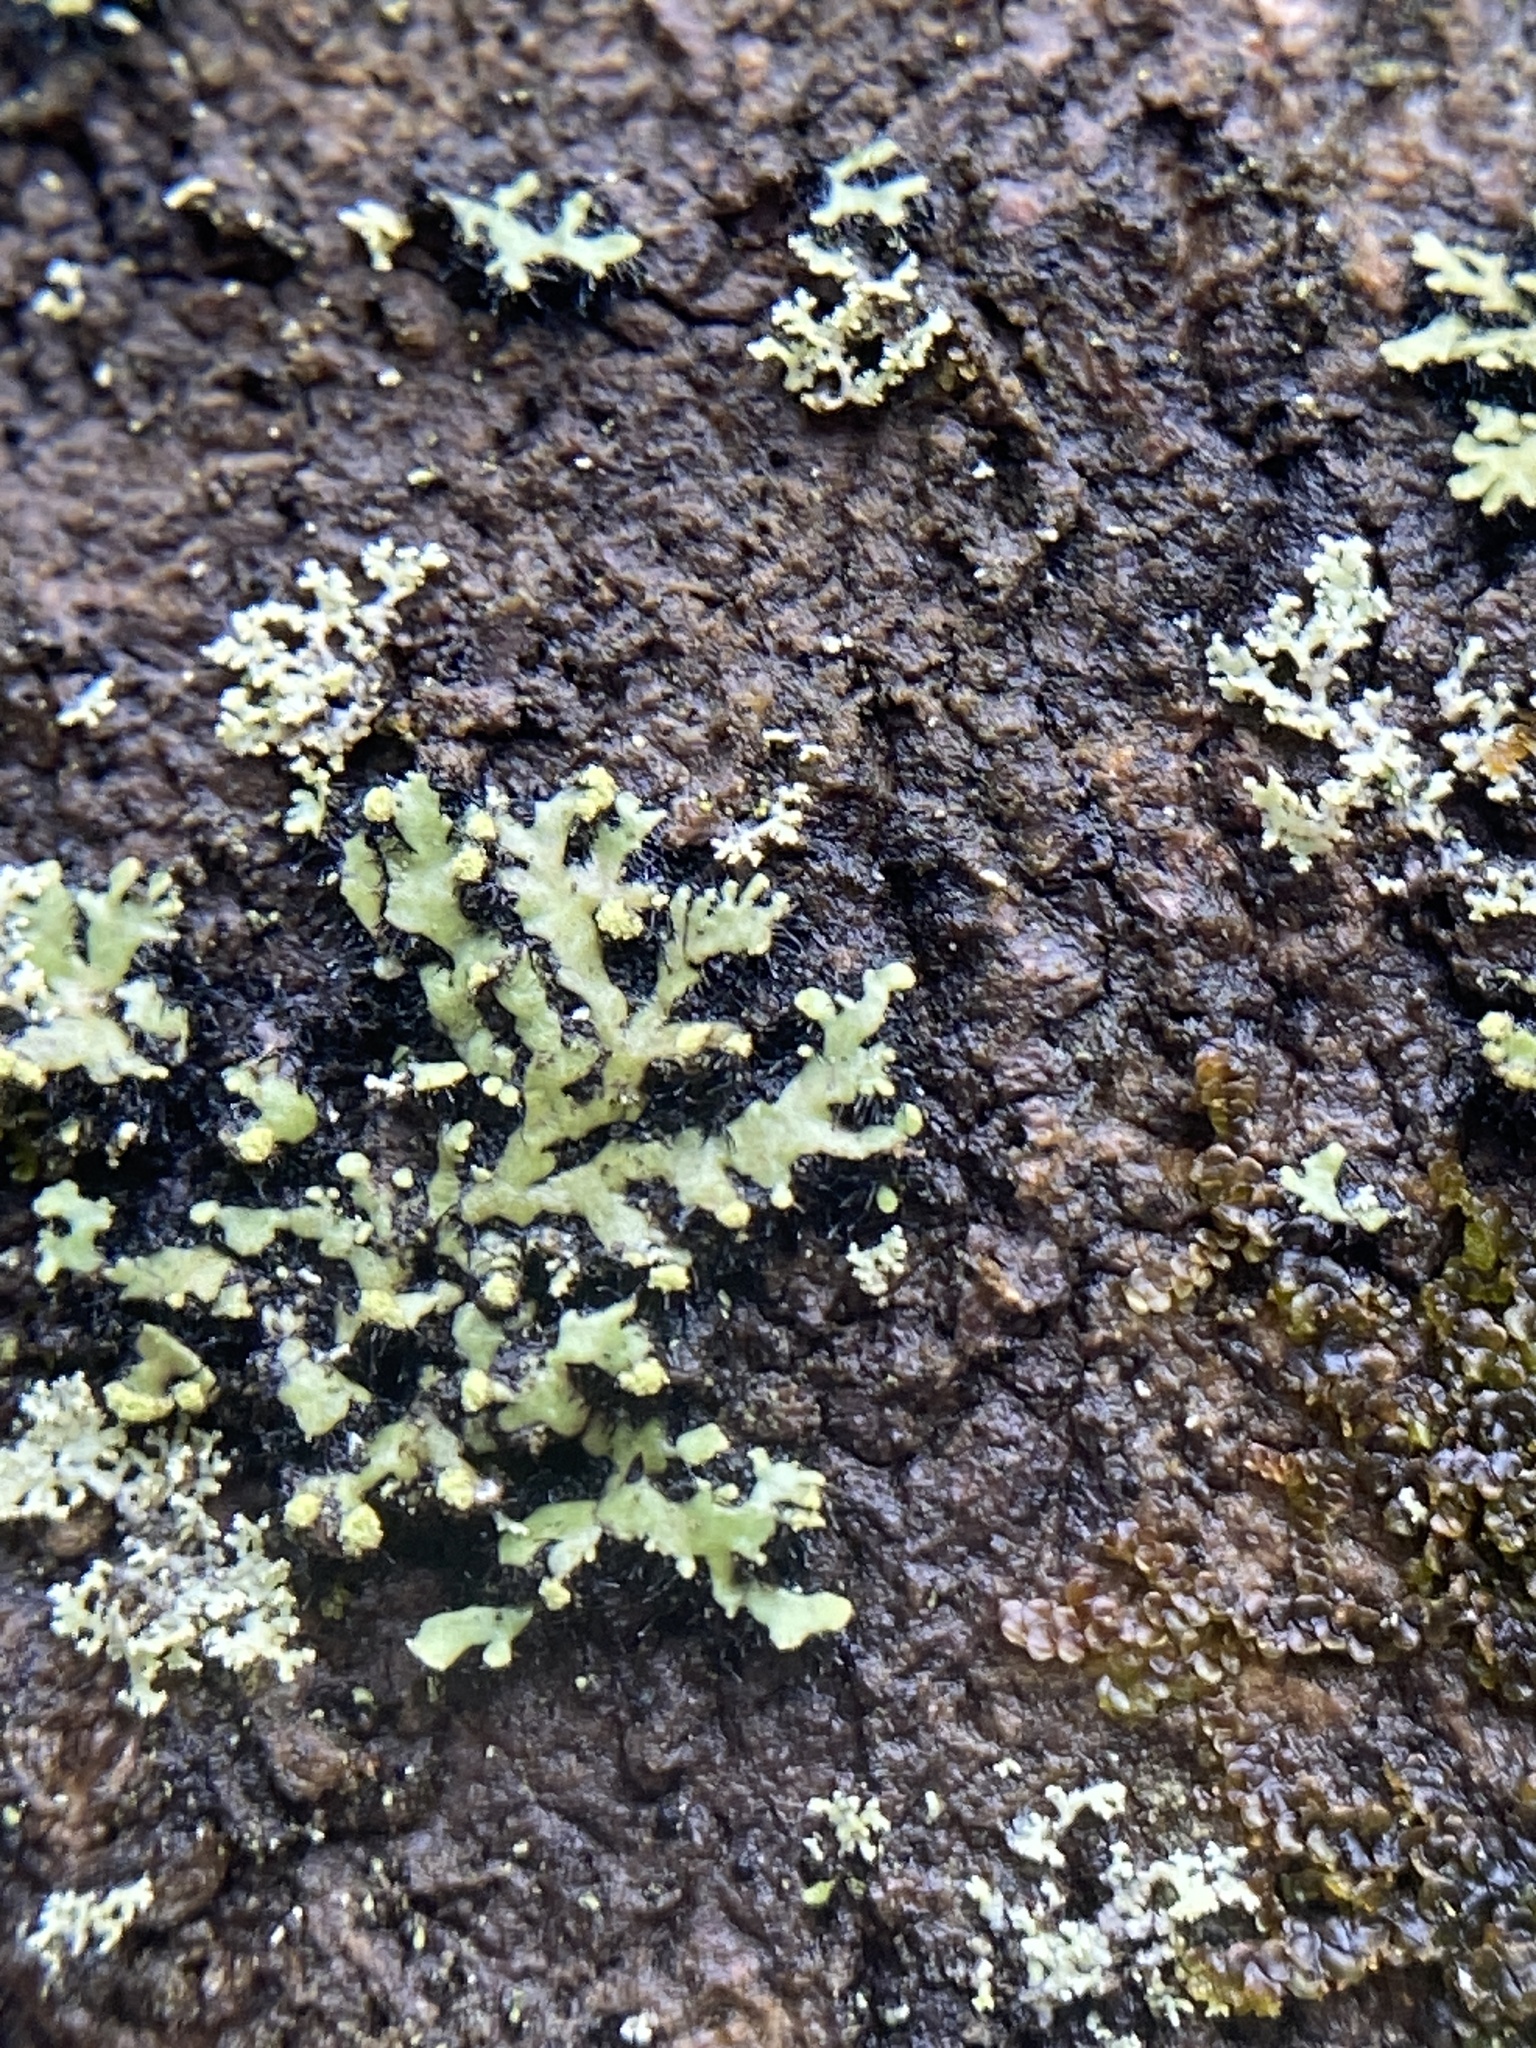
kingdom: Fungi
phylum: Ascomycota
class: Lecanoromycetes
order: Caliciales
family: Physciaceae
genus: Phaeophyscia
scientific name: Phaeophyscia rubropulchra
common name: Orange-cored shadow lichen
